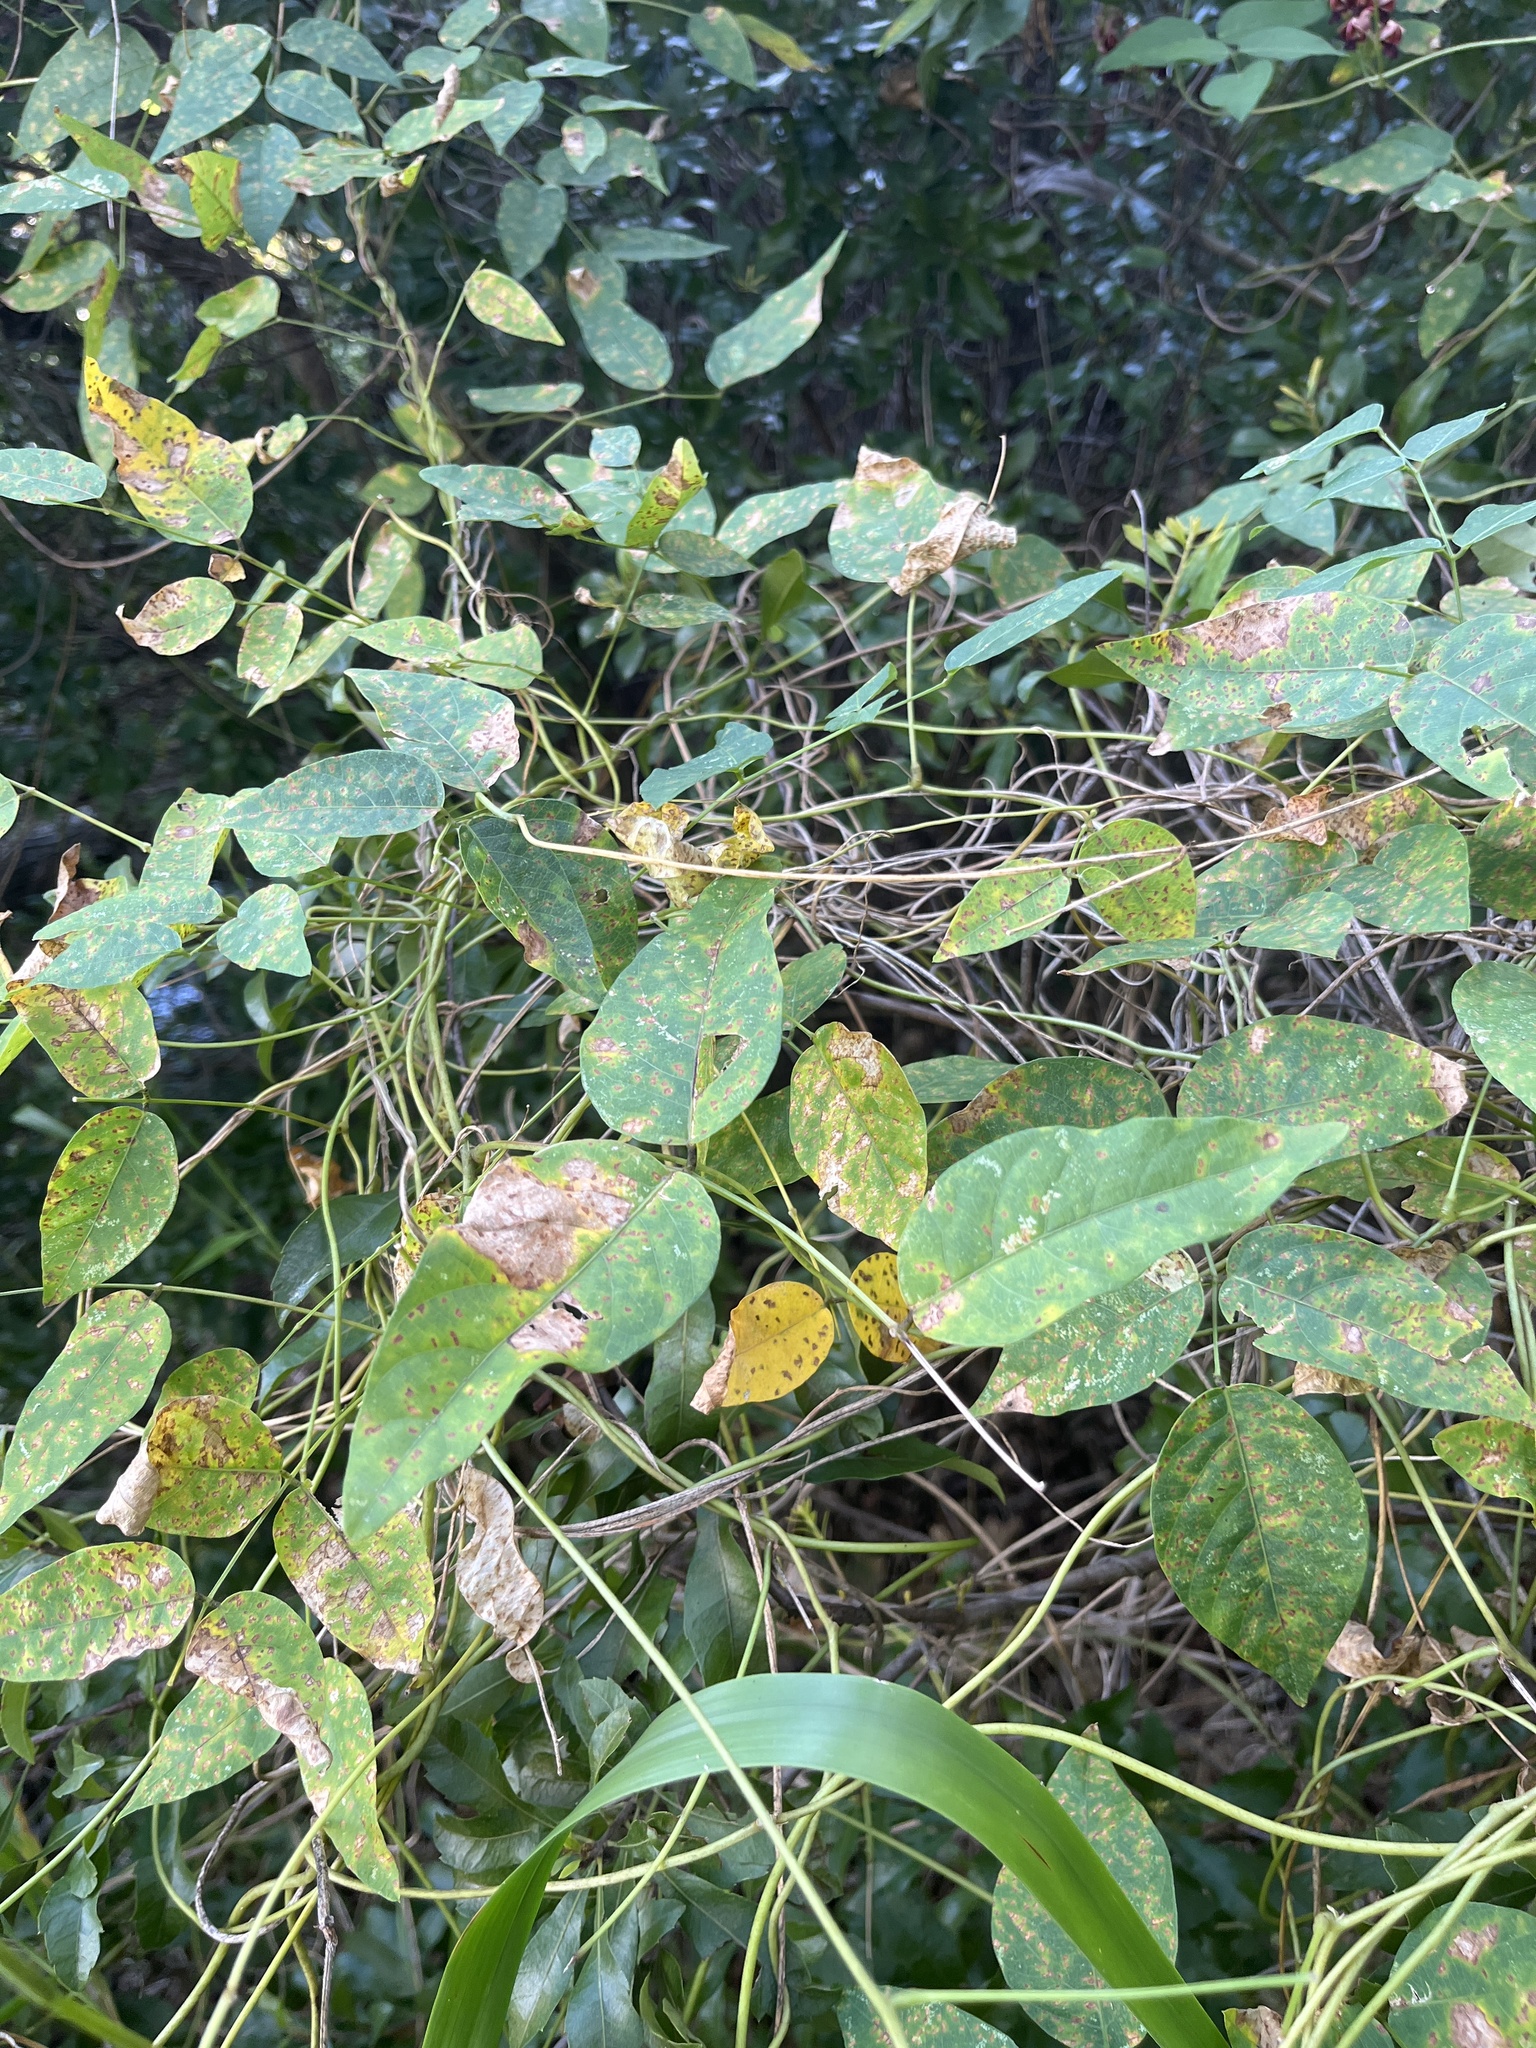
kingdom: Plantae
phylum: Tracheophyta
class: Magnoliopsida
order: Fabales
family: Fabaceae
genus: Apios
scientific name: Apios americana
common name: American potato-bean
